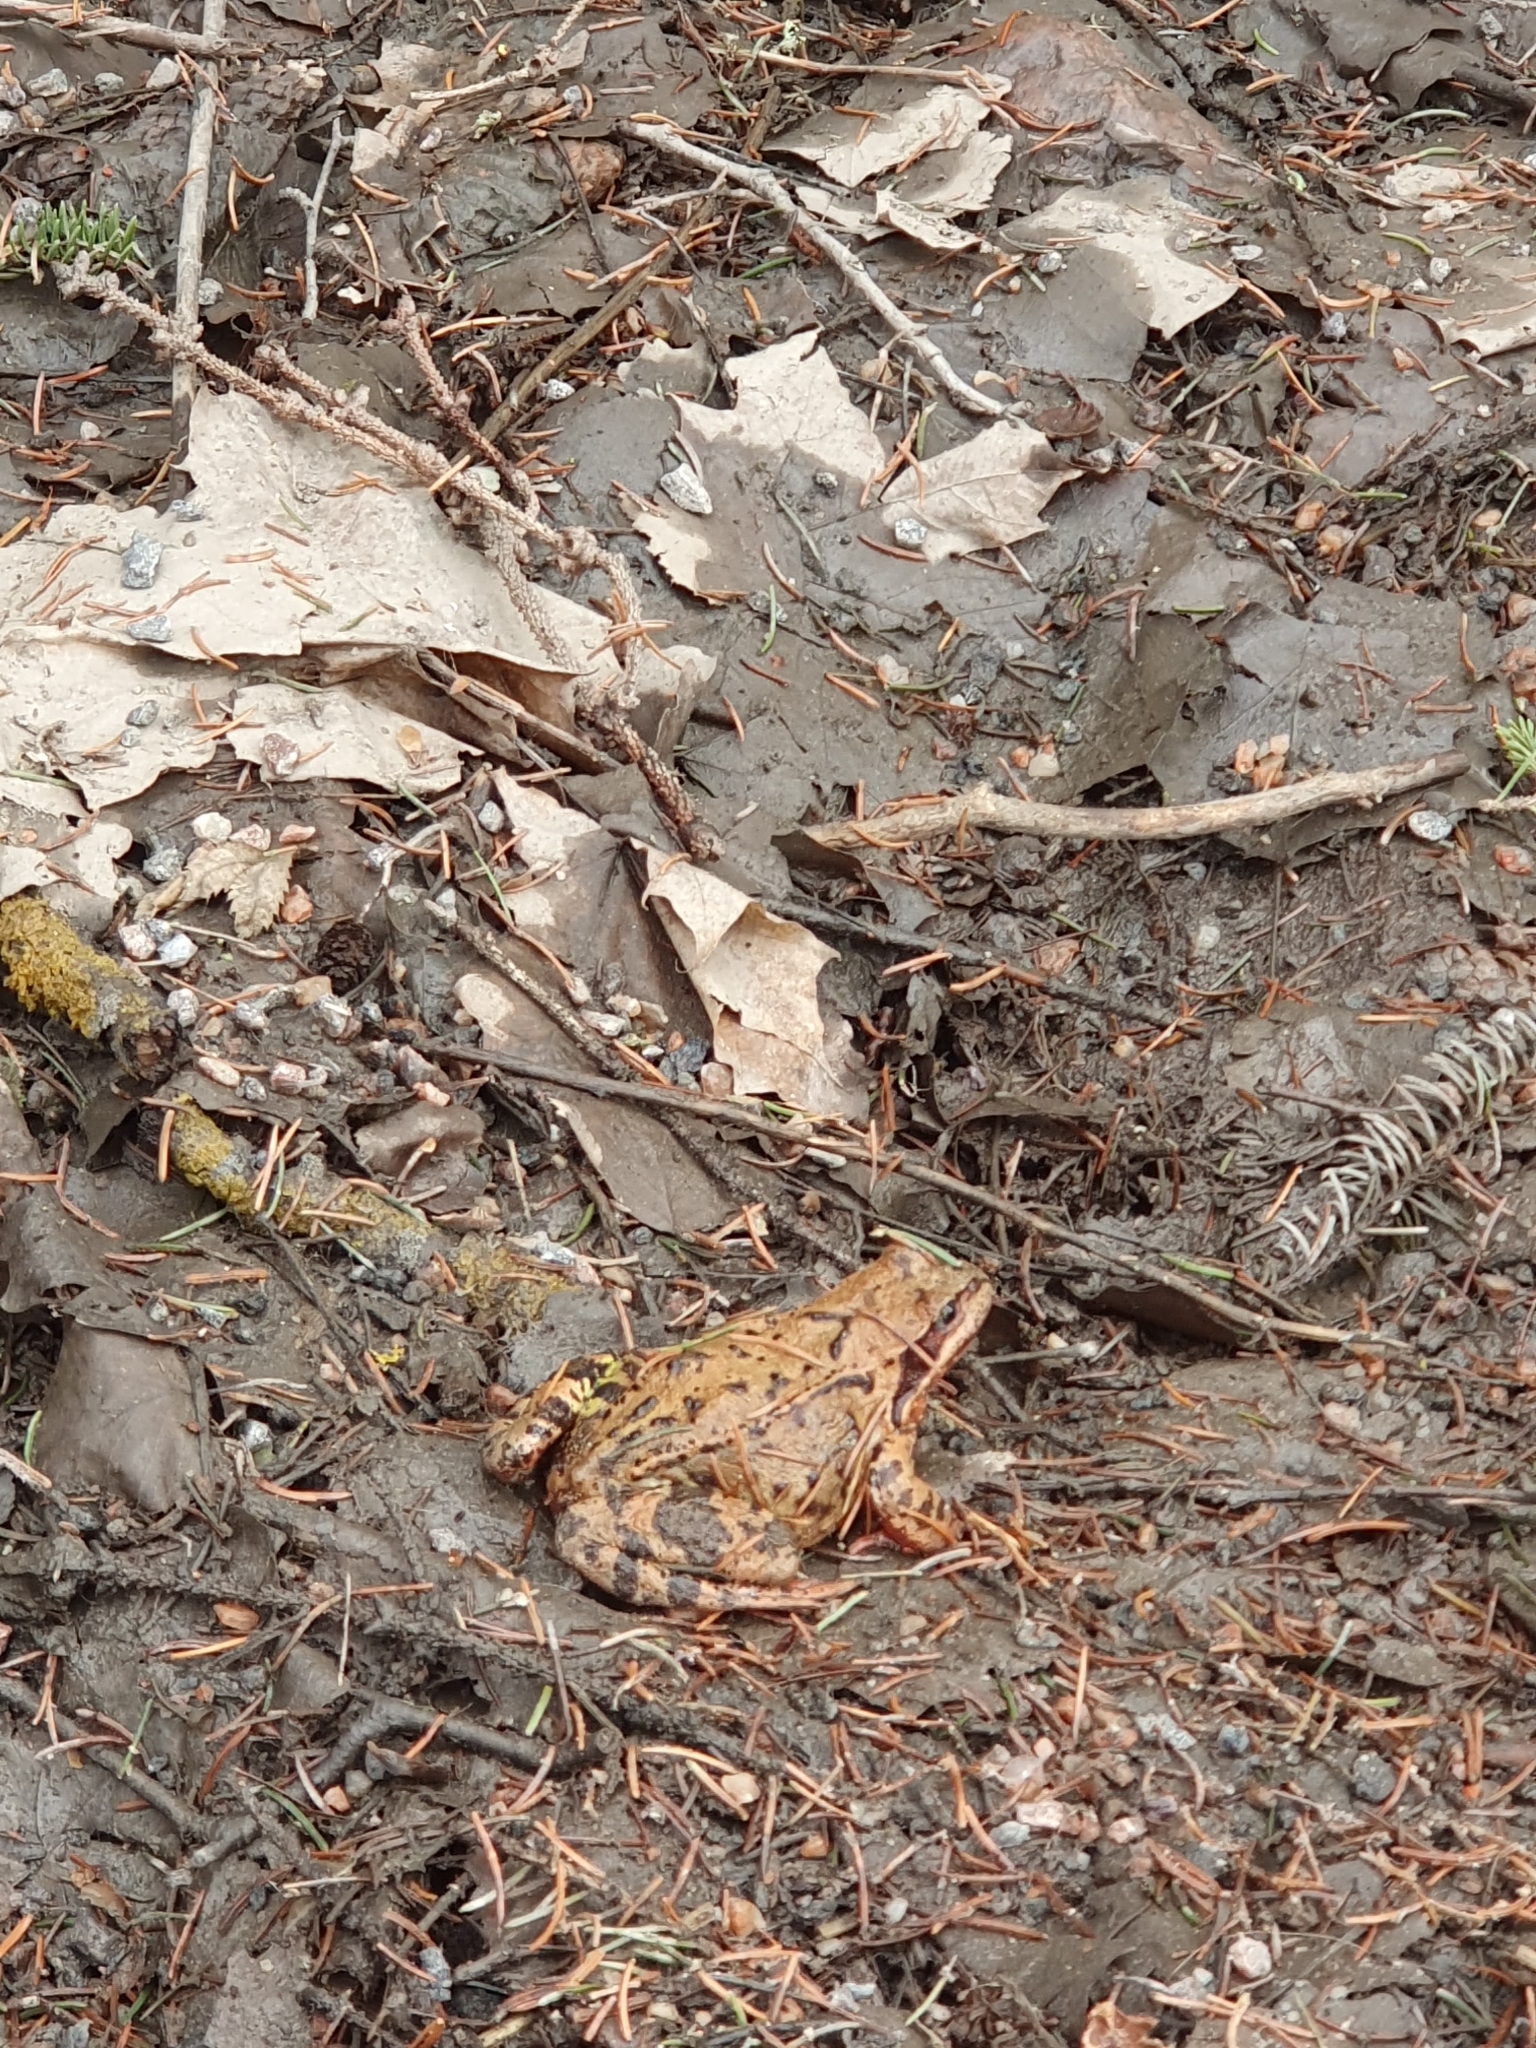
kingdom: Animalia
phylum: Chordata
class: Amphibia
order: Anura
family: Ranidae
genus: Rana
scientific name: Rana temporaria
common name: Common frog
